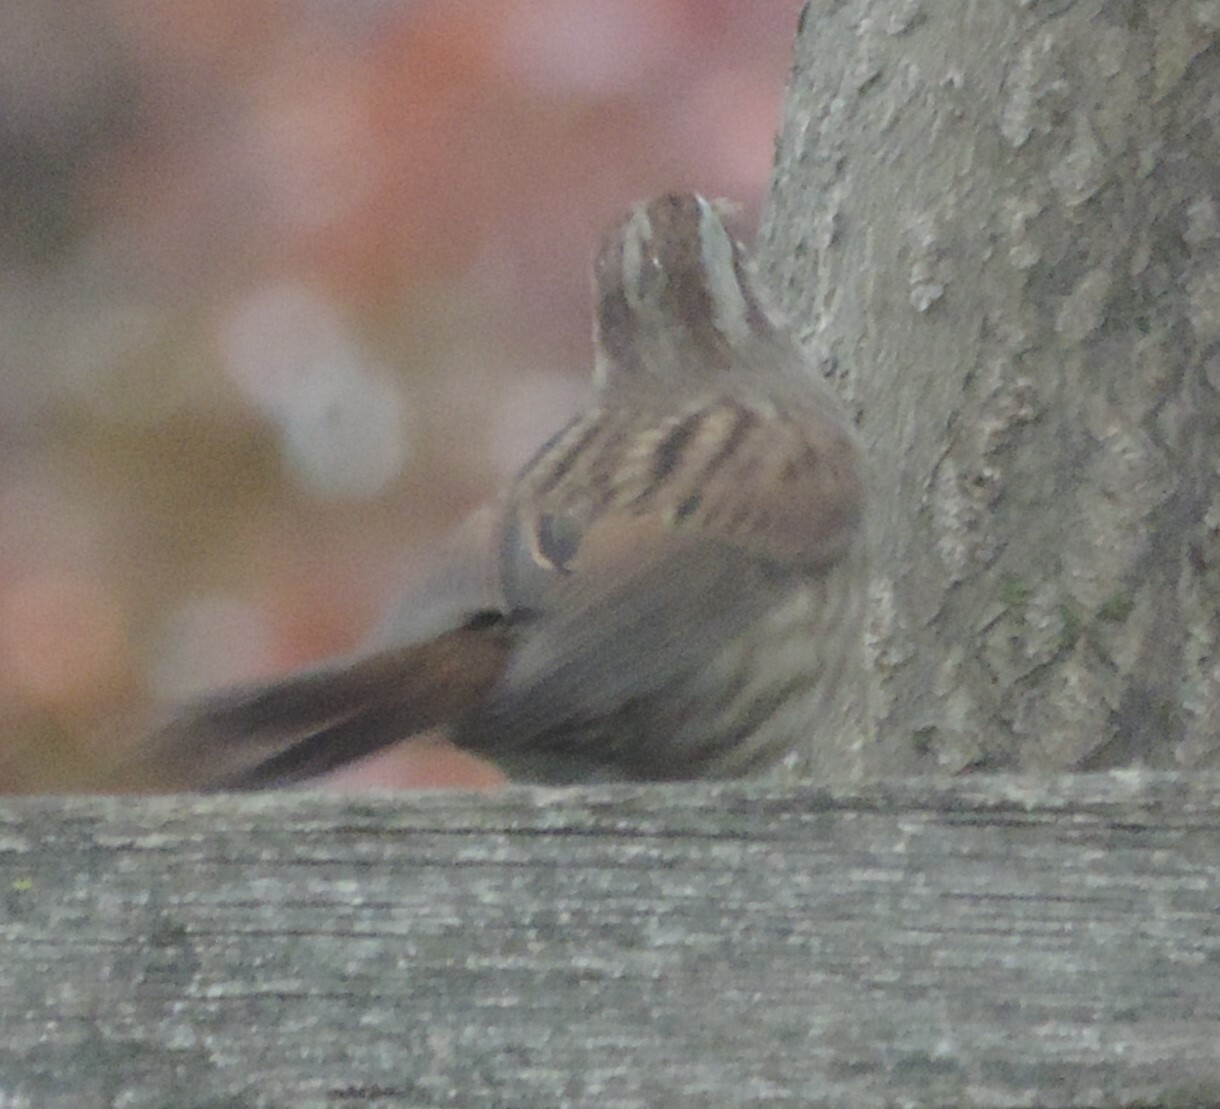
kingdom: Animalia
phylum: Chordata
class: Aves
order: Passeriformes
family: Passerellidae
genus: Melospiza
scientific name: Melospiza melodia
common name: Song sparrow
